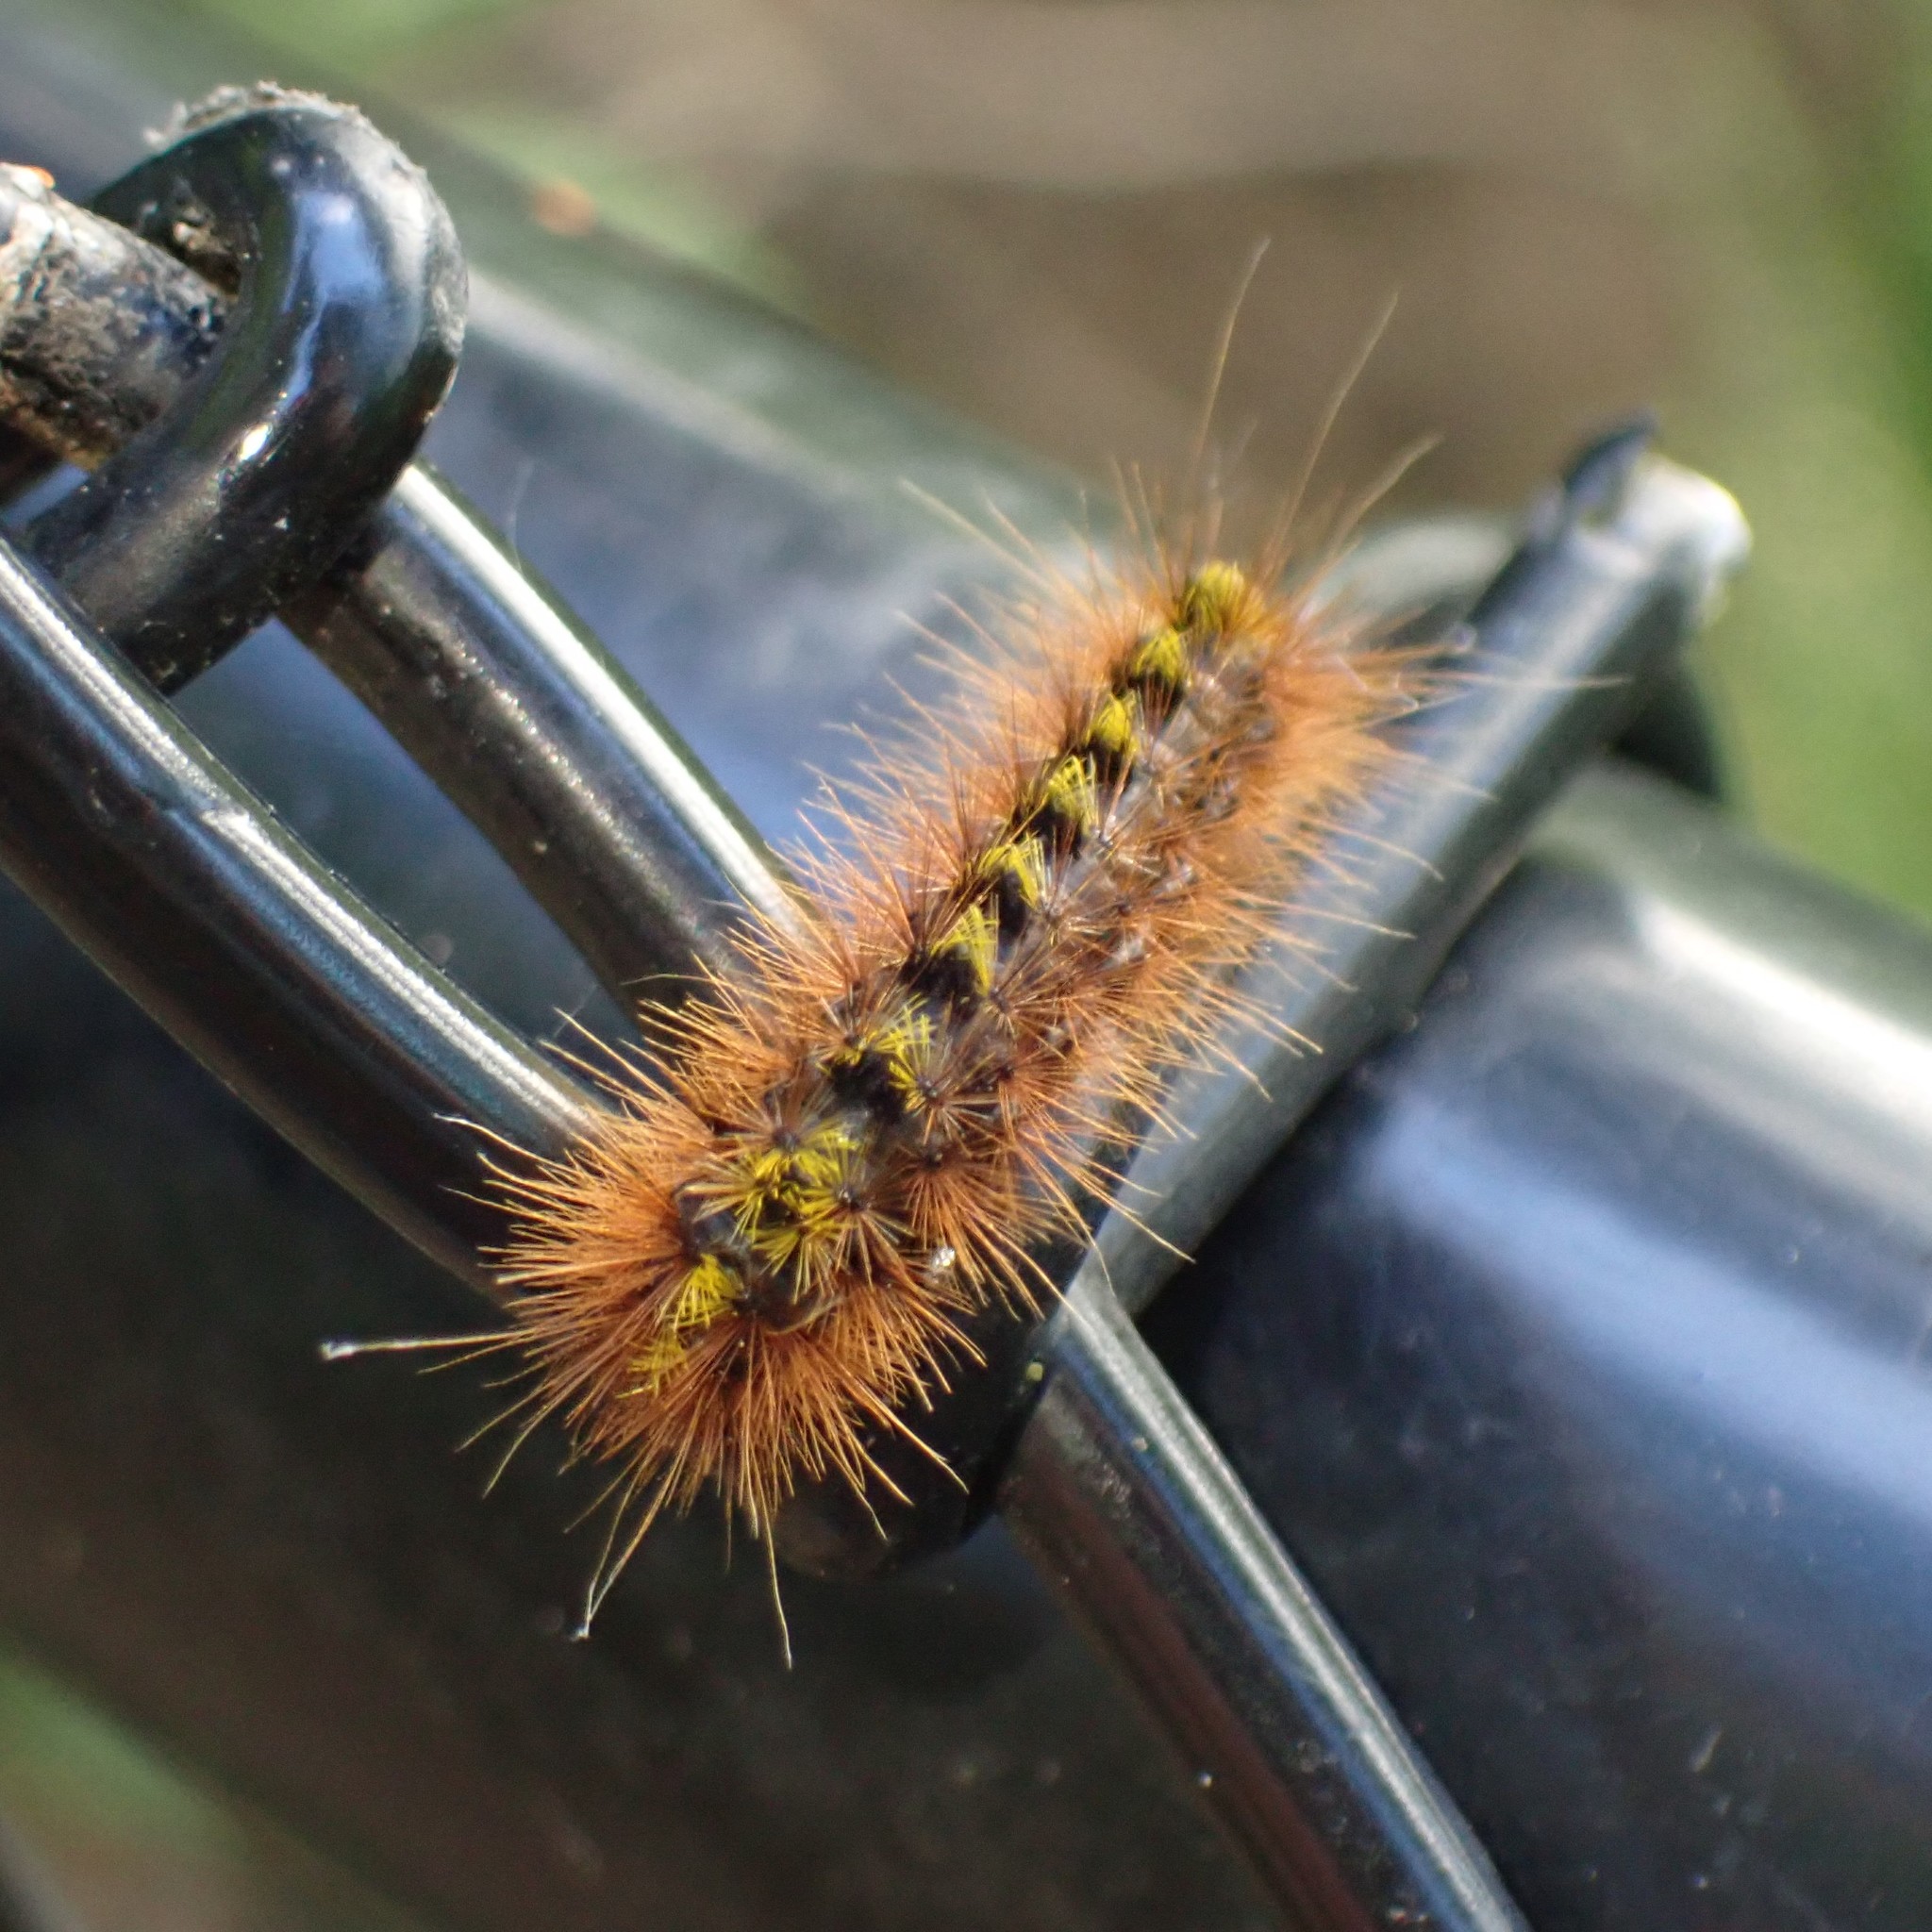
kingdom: Animalia
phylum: Arthropoda
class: Insecta
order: Lepidoptera
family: Erebidae
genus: Lophocampa
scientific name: Lophocampa argentata
